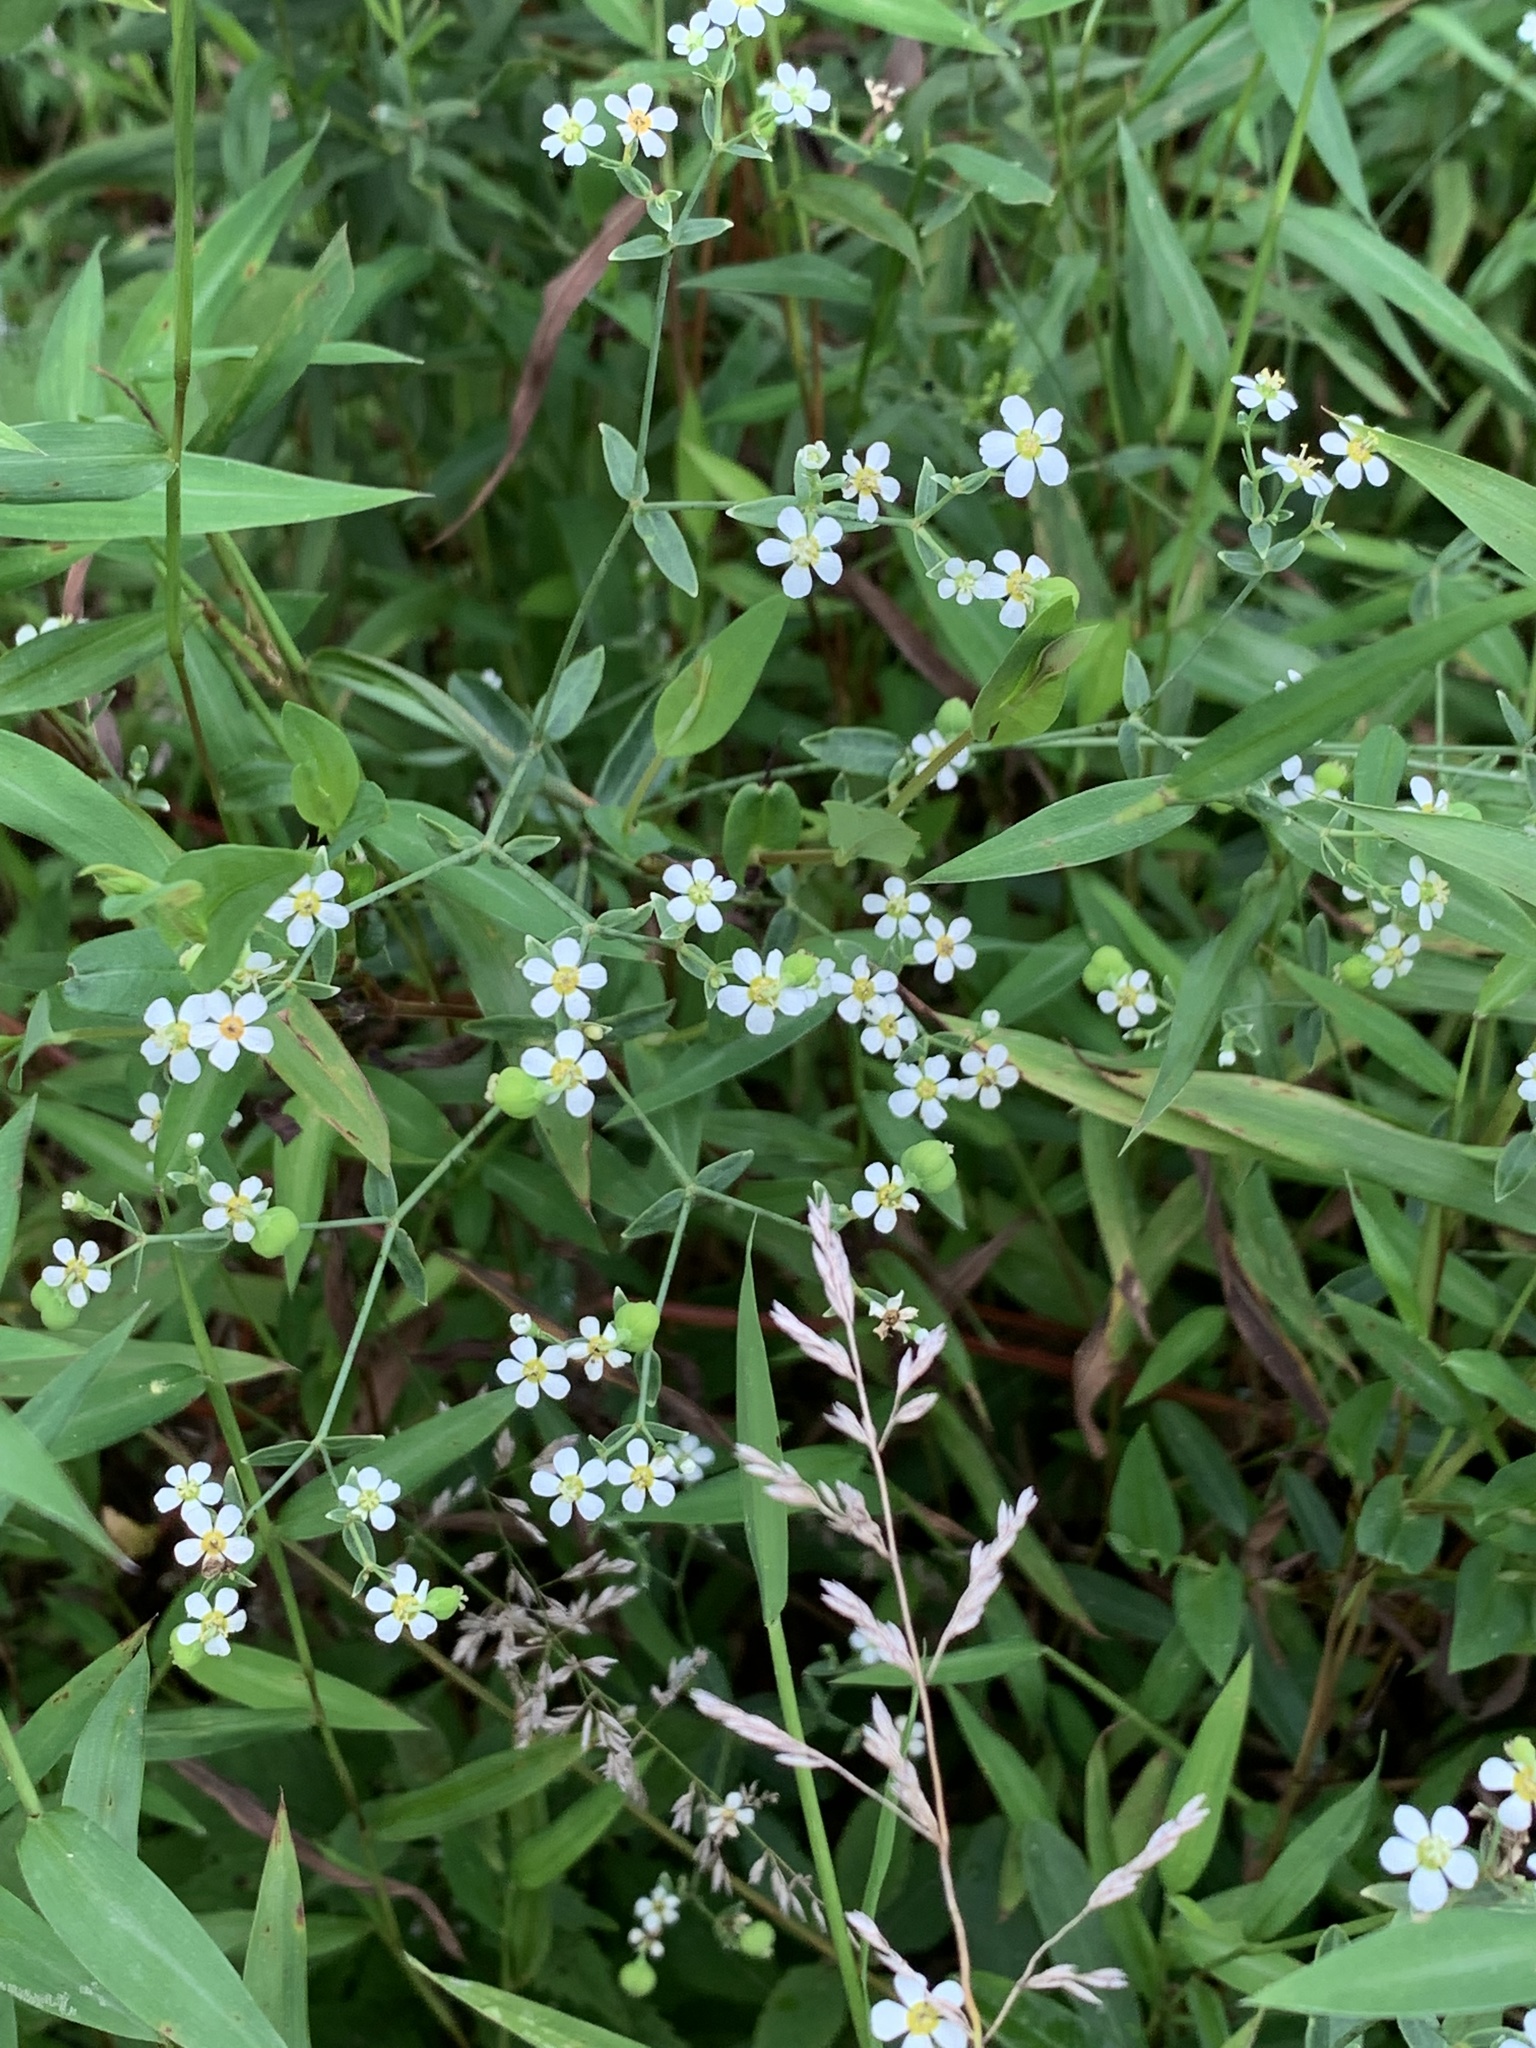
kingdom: Plantae
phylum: Tracheophyta
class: Magnoliopsida
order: Malpighiales
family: Euphorbiaceae
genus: Euphorbia
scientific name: Euphorbia corollata
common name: Flowering spurge
